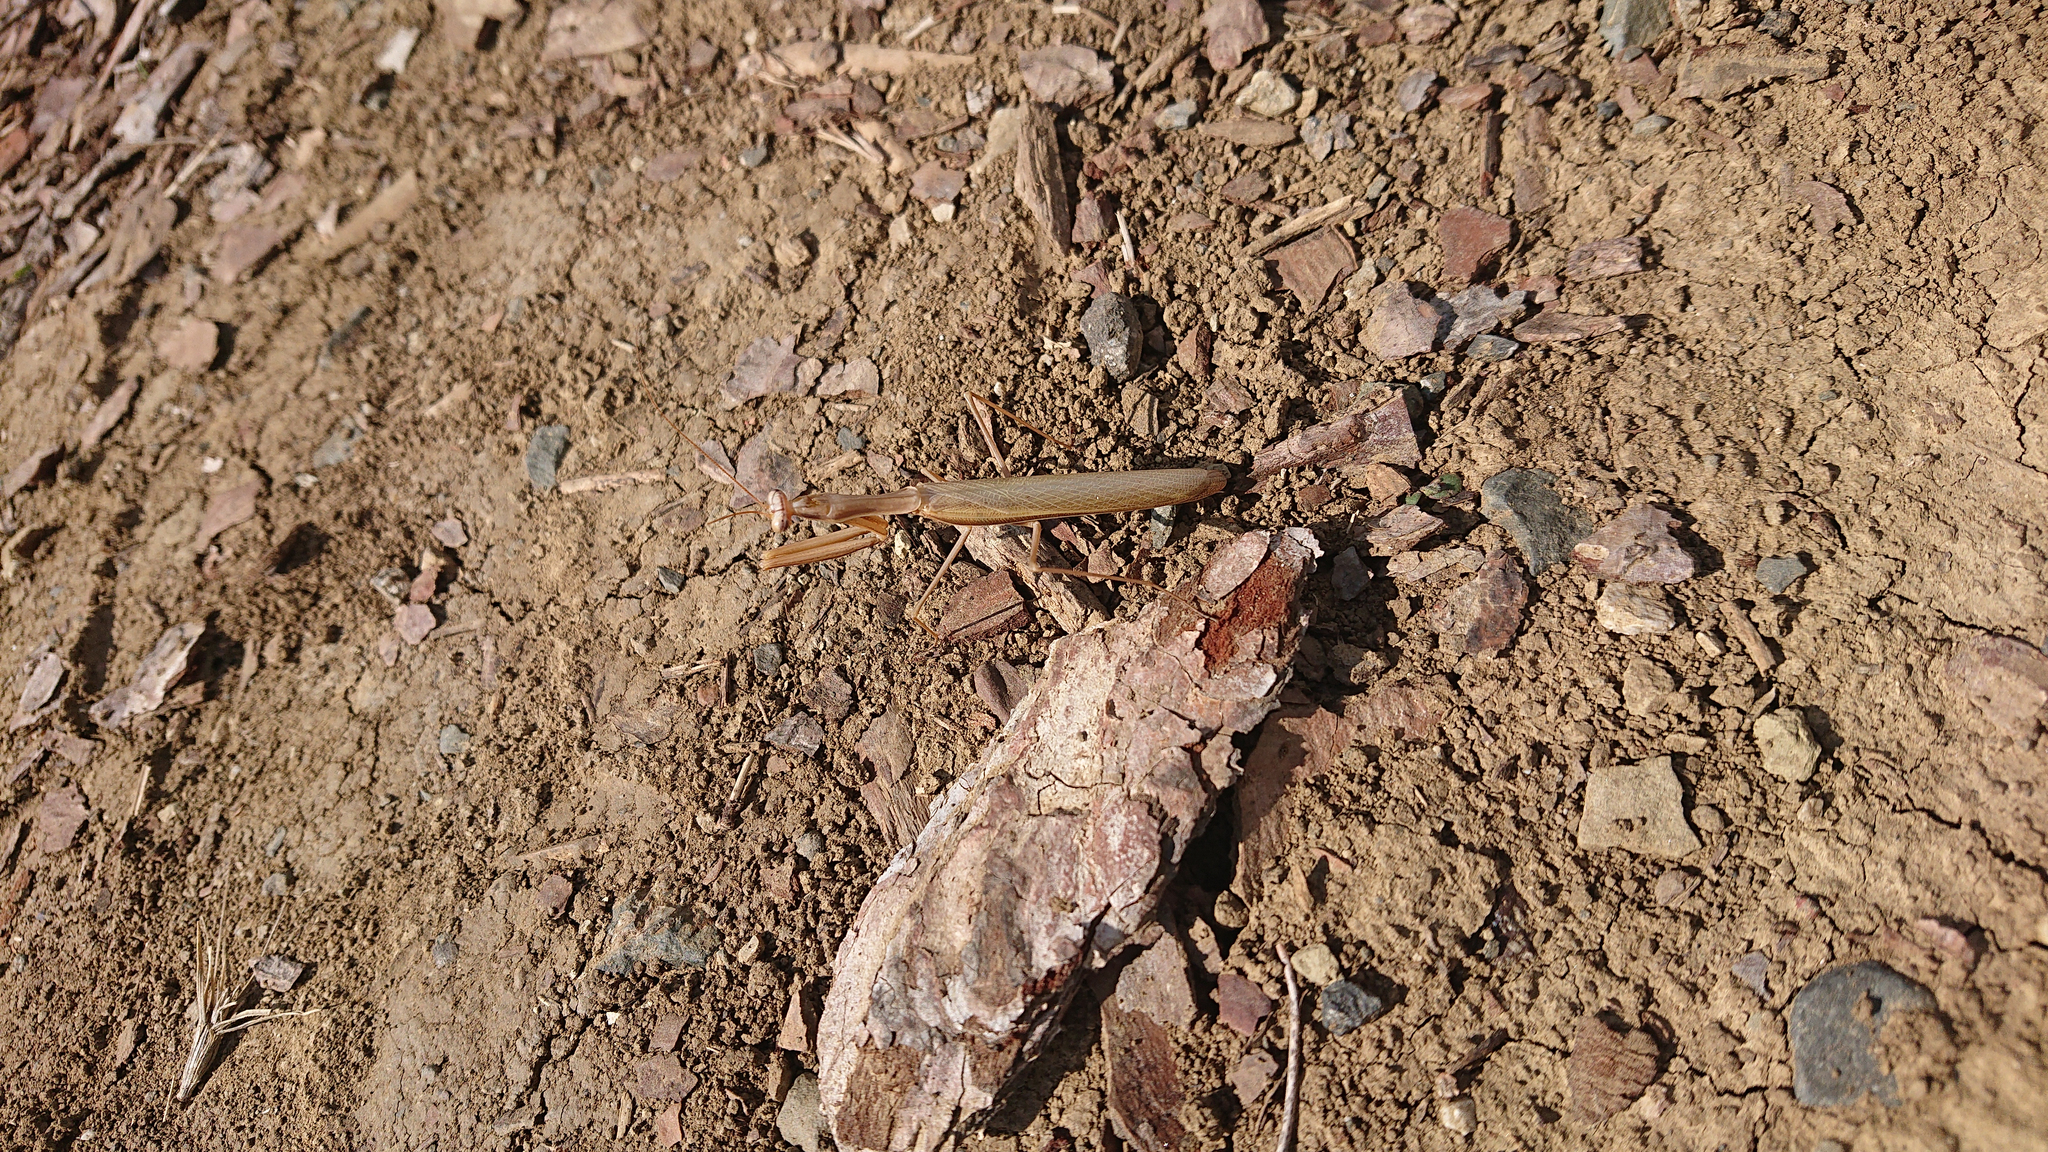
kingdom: Animalia
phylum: Arthropoda
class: Insecta
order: Mantodea
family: Mantidae
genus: Mantis
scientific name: Mantis religiosa
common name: Praying mantis
